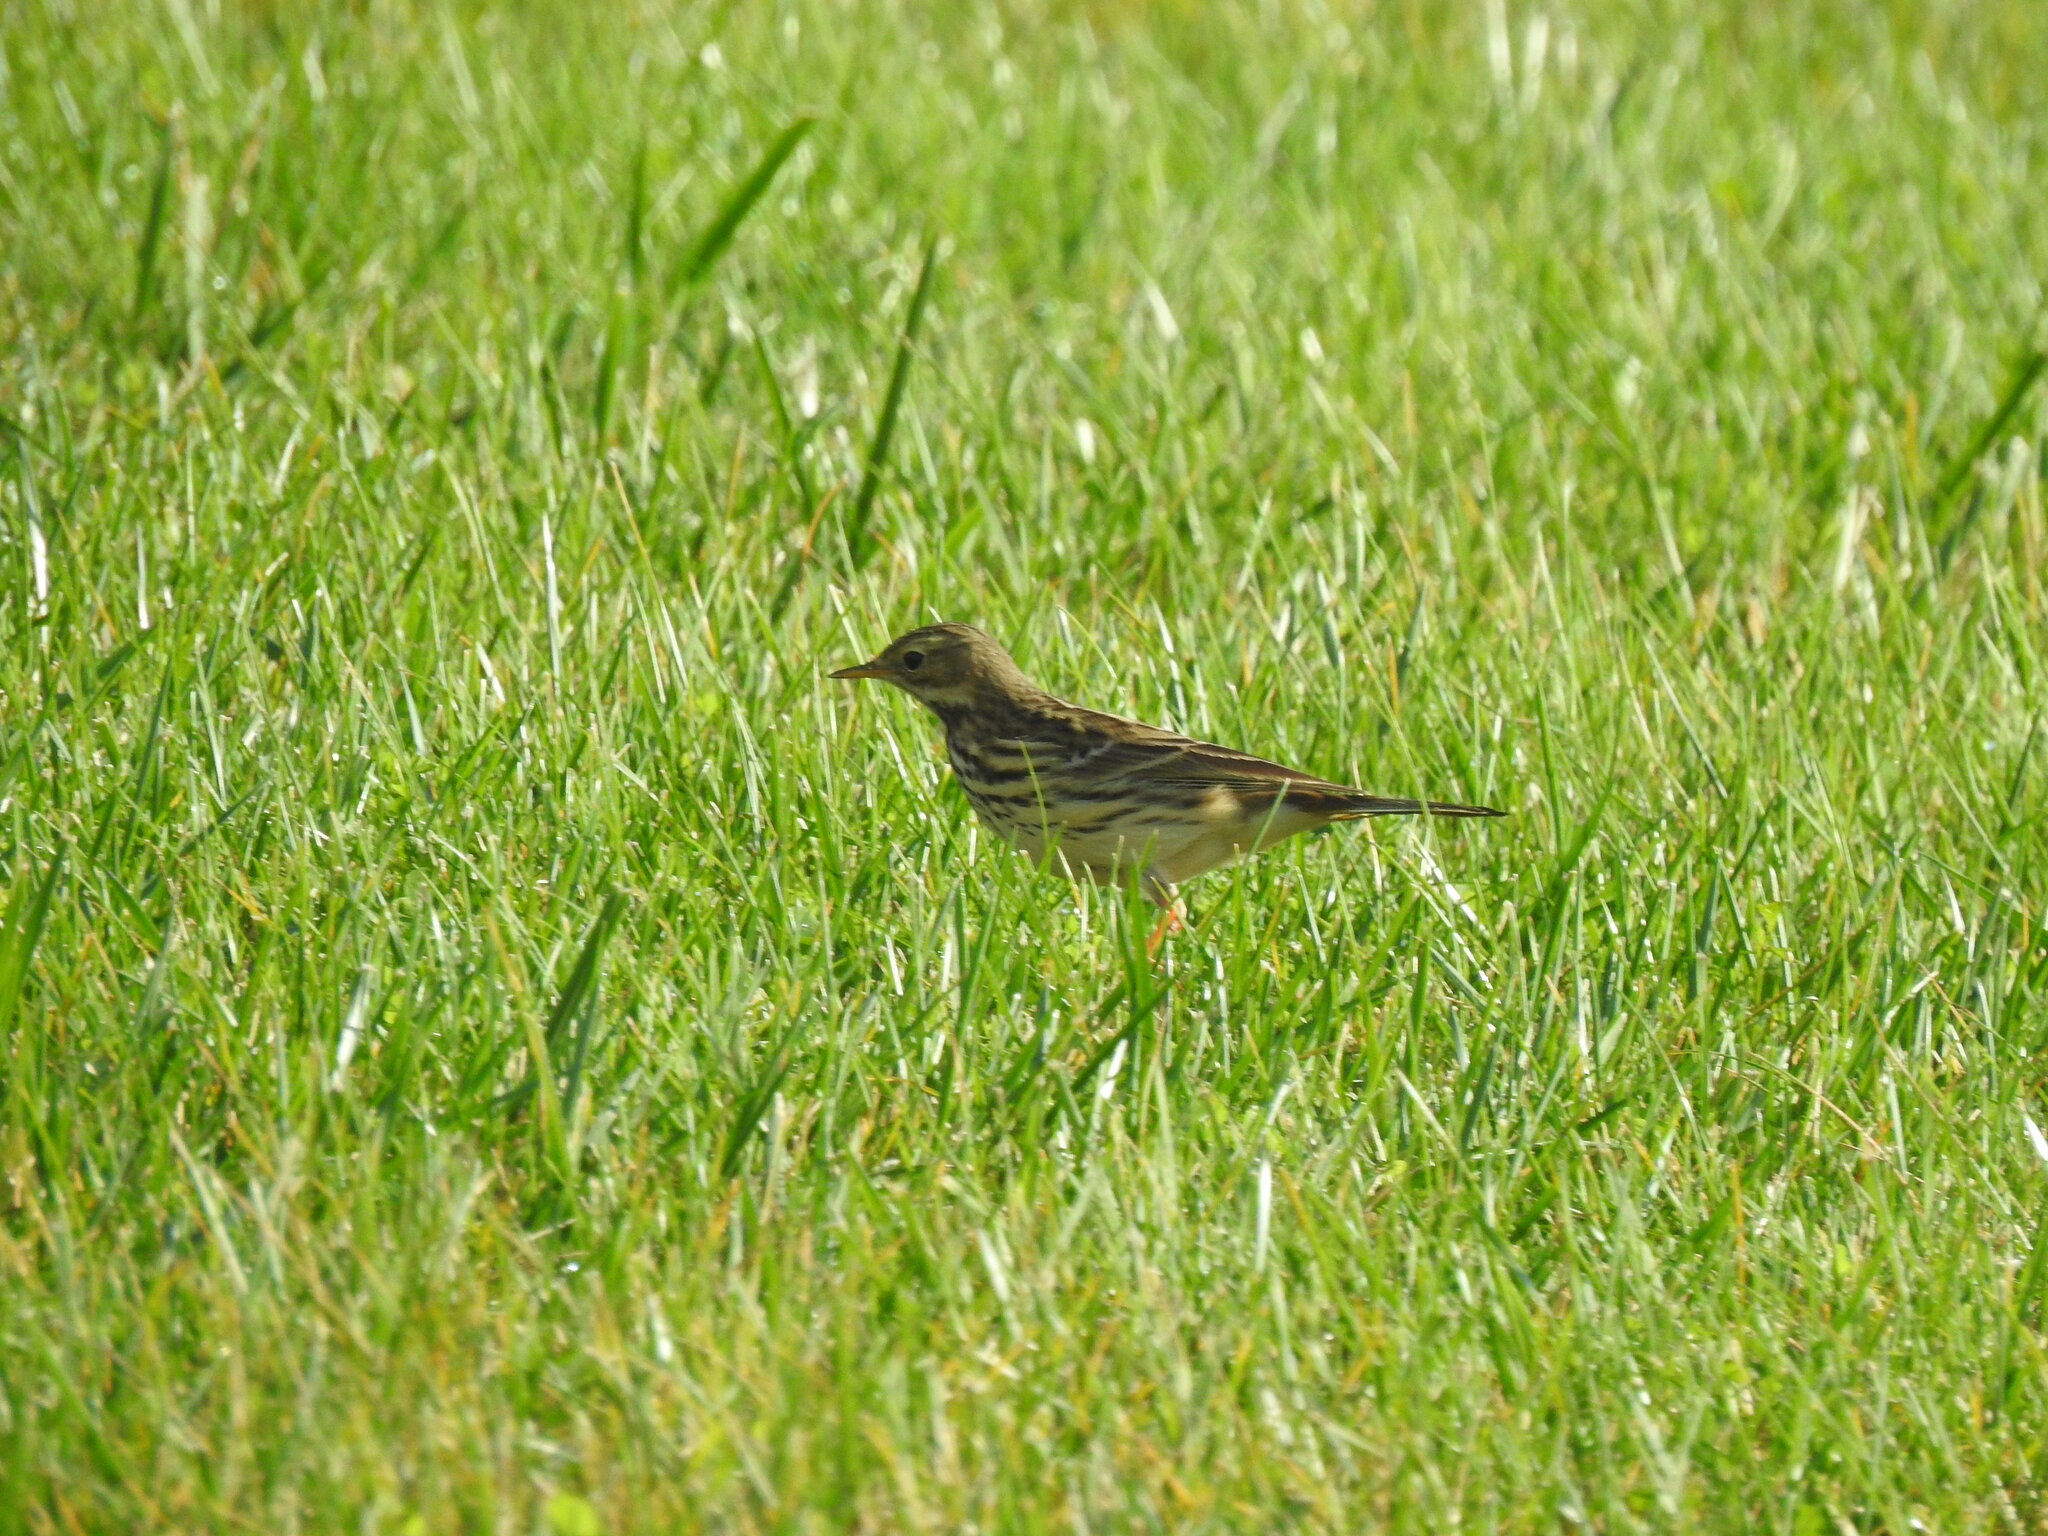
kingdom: Animalia
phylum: Chordata
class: Aves
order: Passeriformes
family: Motacillidae
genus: Anthus
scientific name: Anthus pratensis
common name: Meadow pipit
